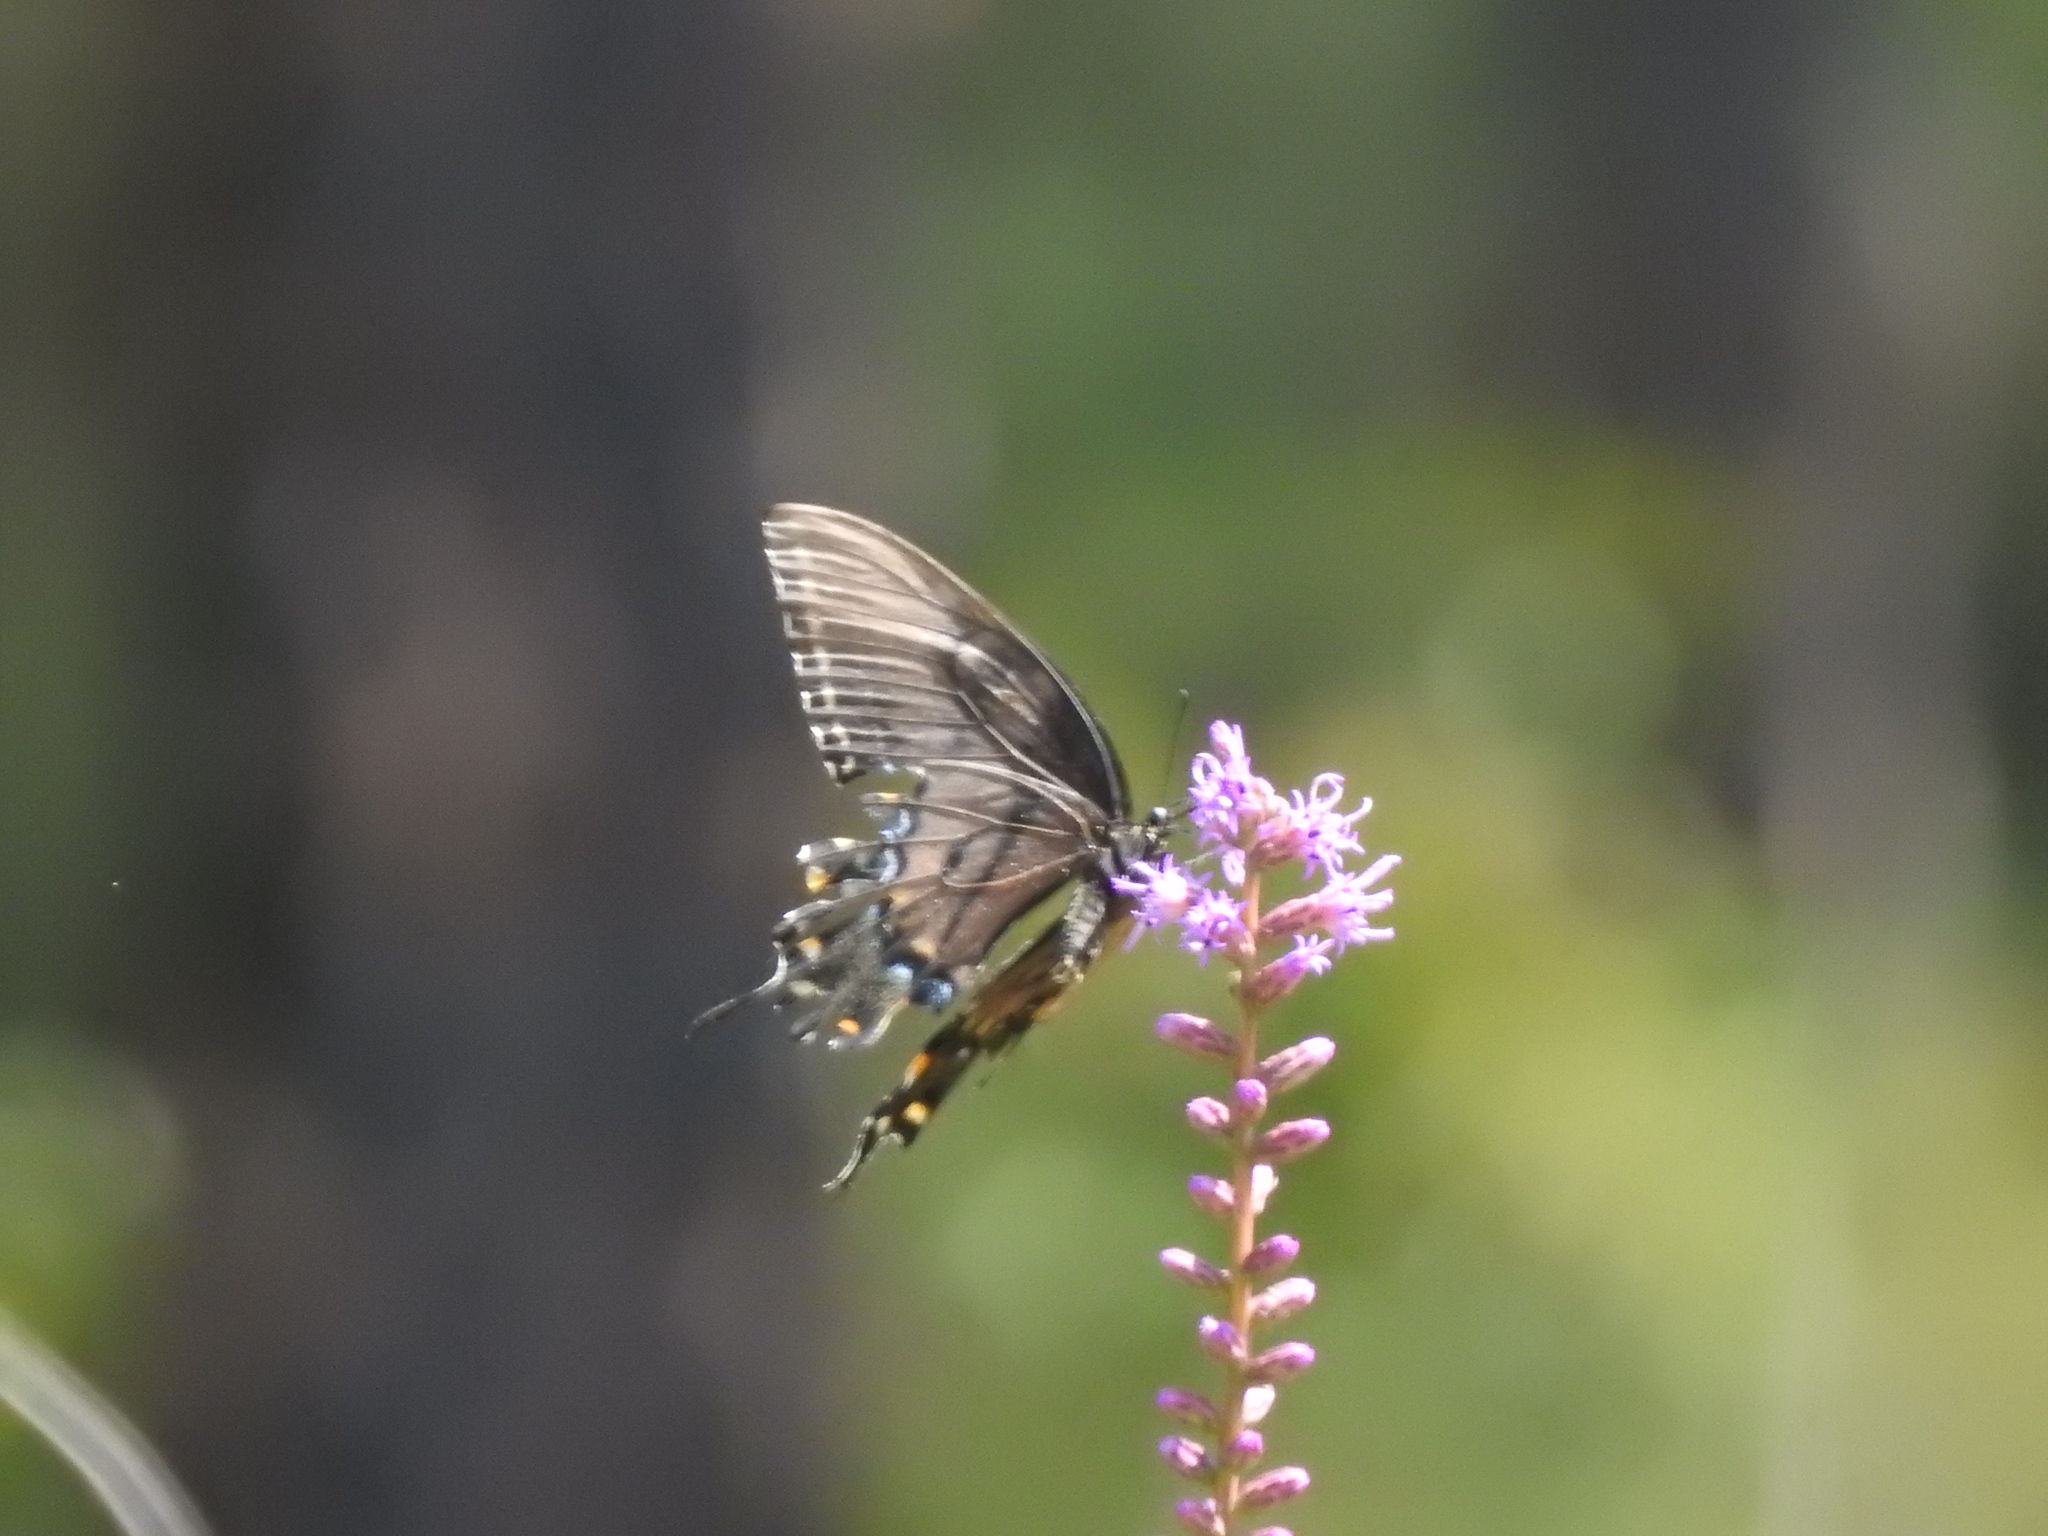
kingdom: Animalia
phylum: Arthropoda
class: Insecta
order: Lepidoptera
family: Papilionidae
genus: Papilio
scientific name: Papilio glaucus
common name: Tiger swallowtail
